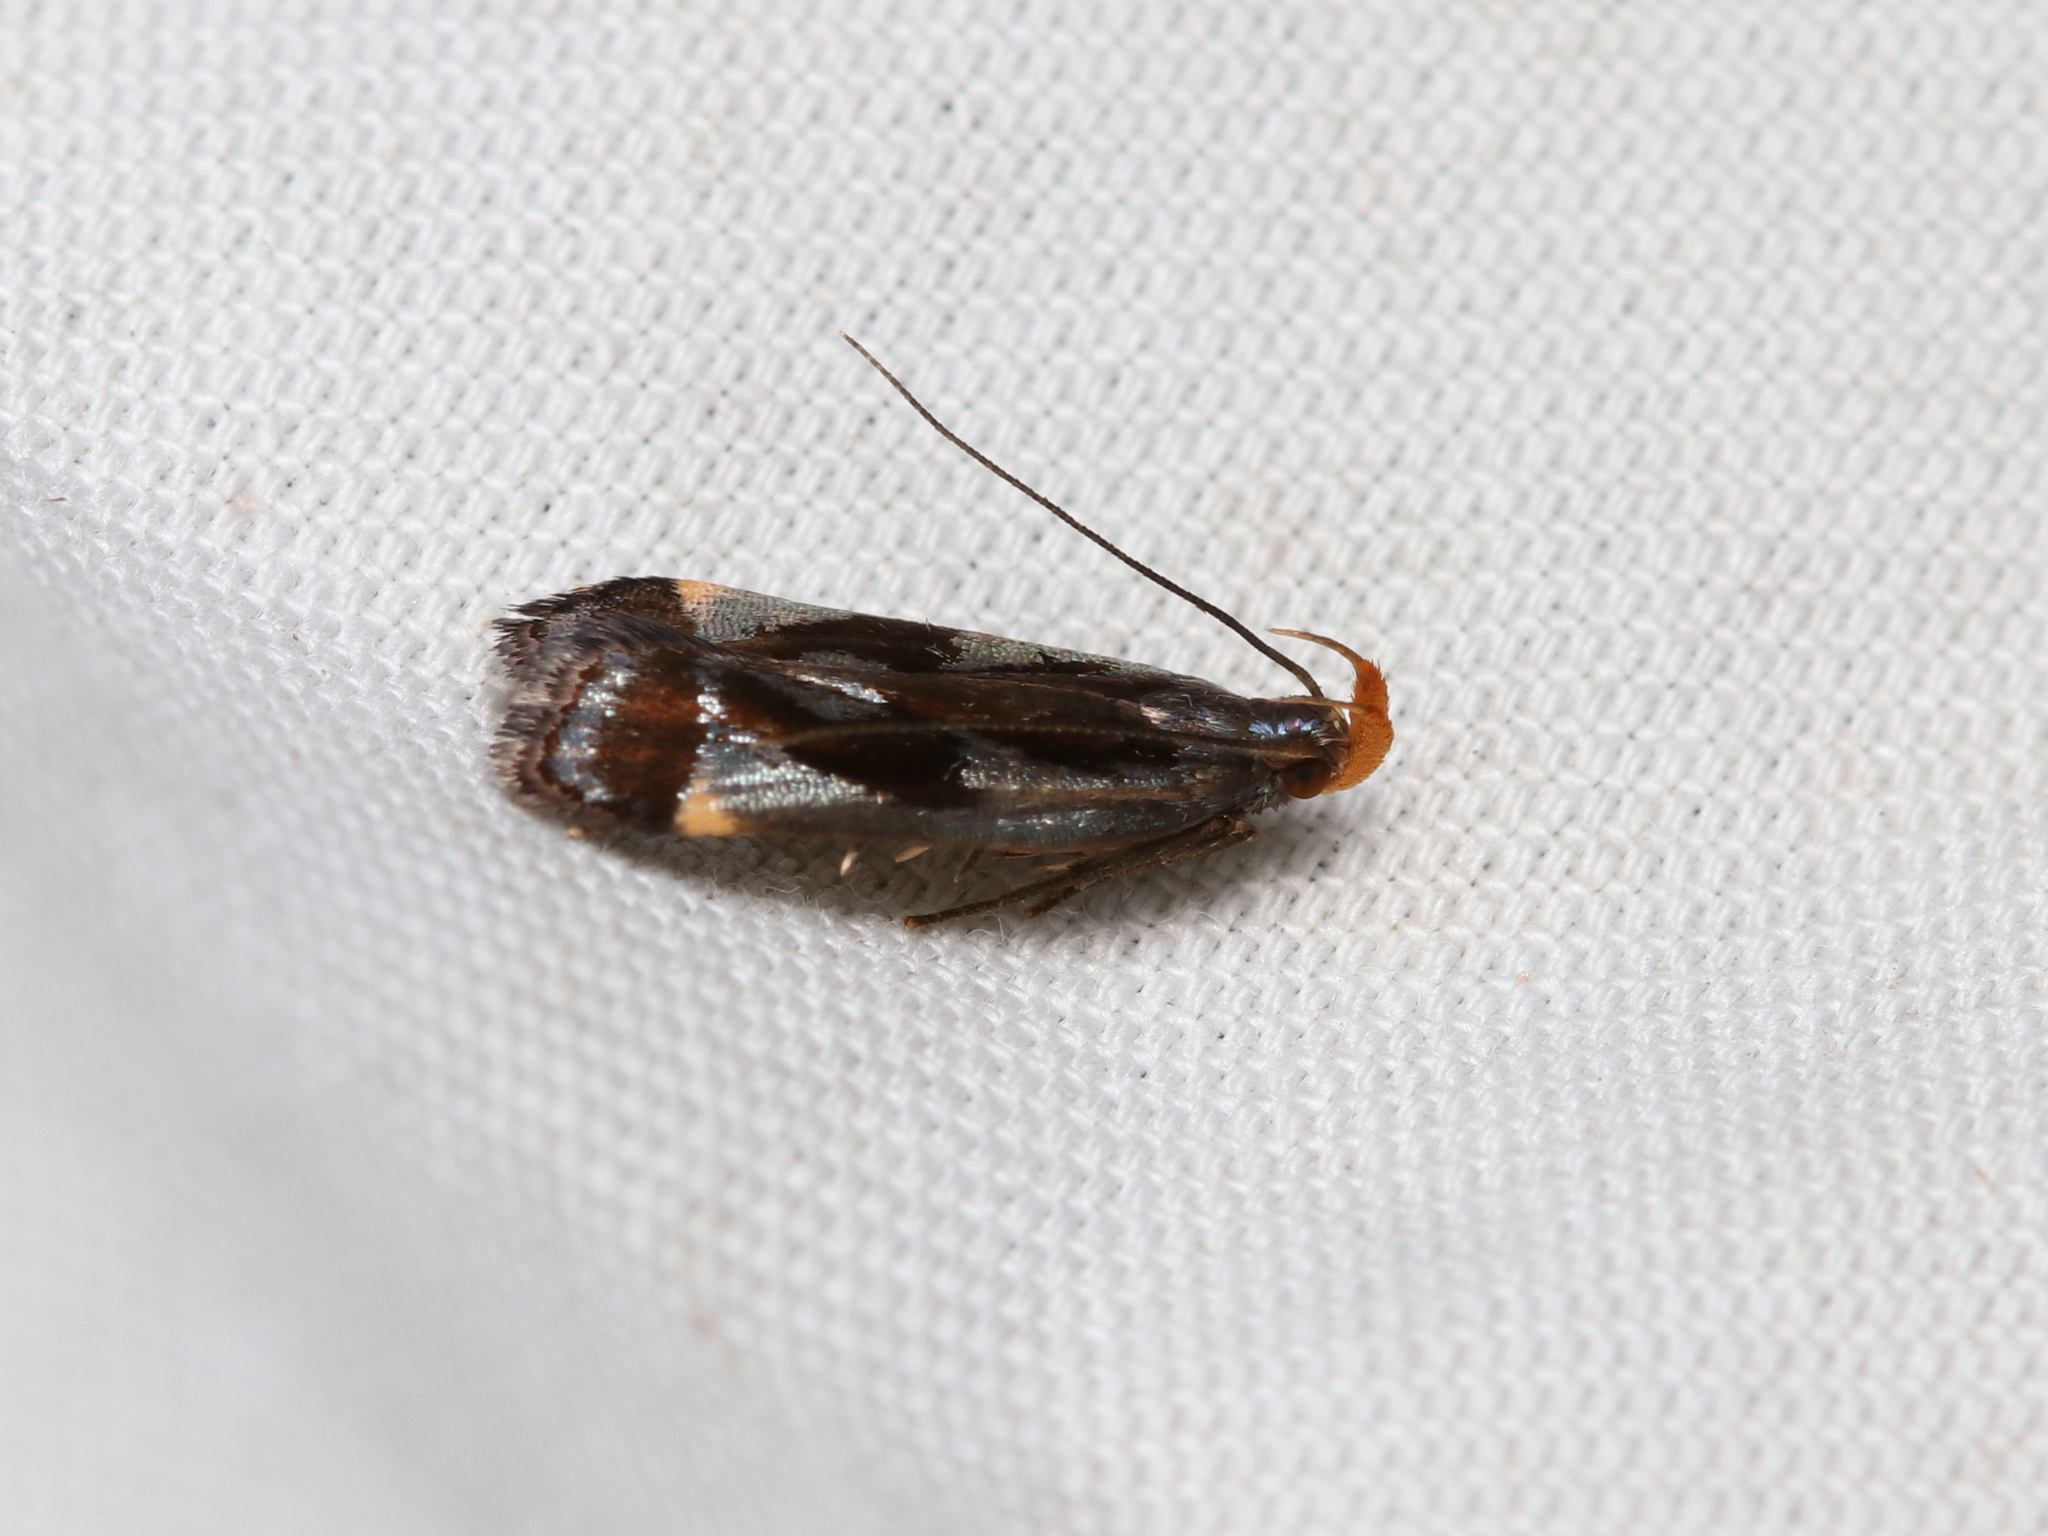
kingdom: Animalia
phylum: Arthropoda
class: Insecta
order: Lepidoptera
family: Gelechiidae
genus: Dichomeris
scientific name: Dichomeris ochripalpella
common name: Shining dichomeris moth
